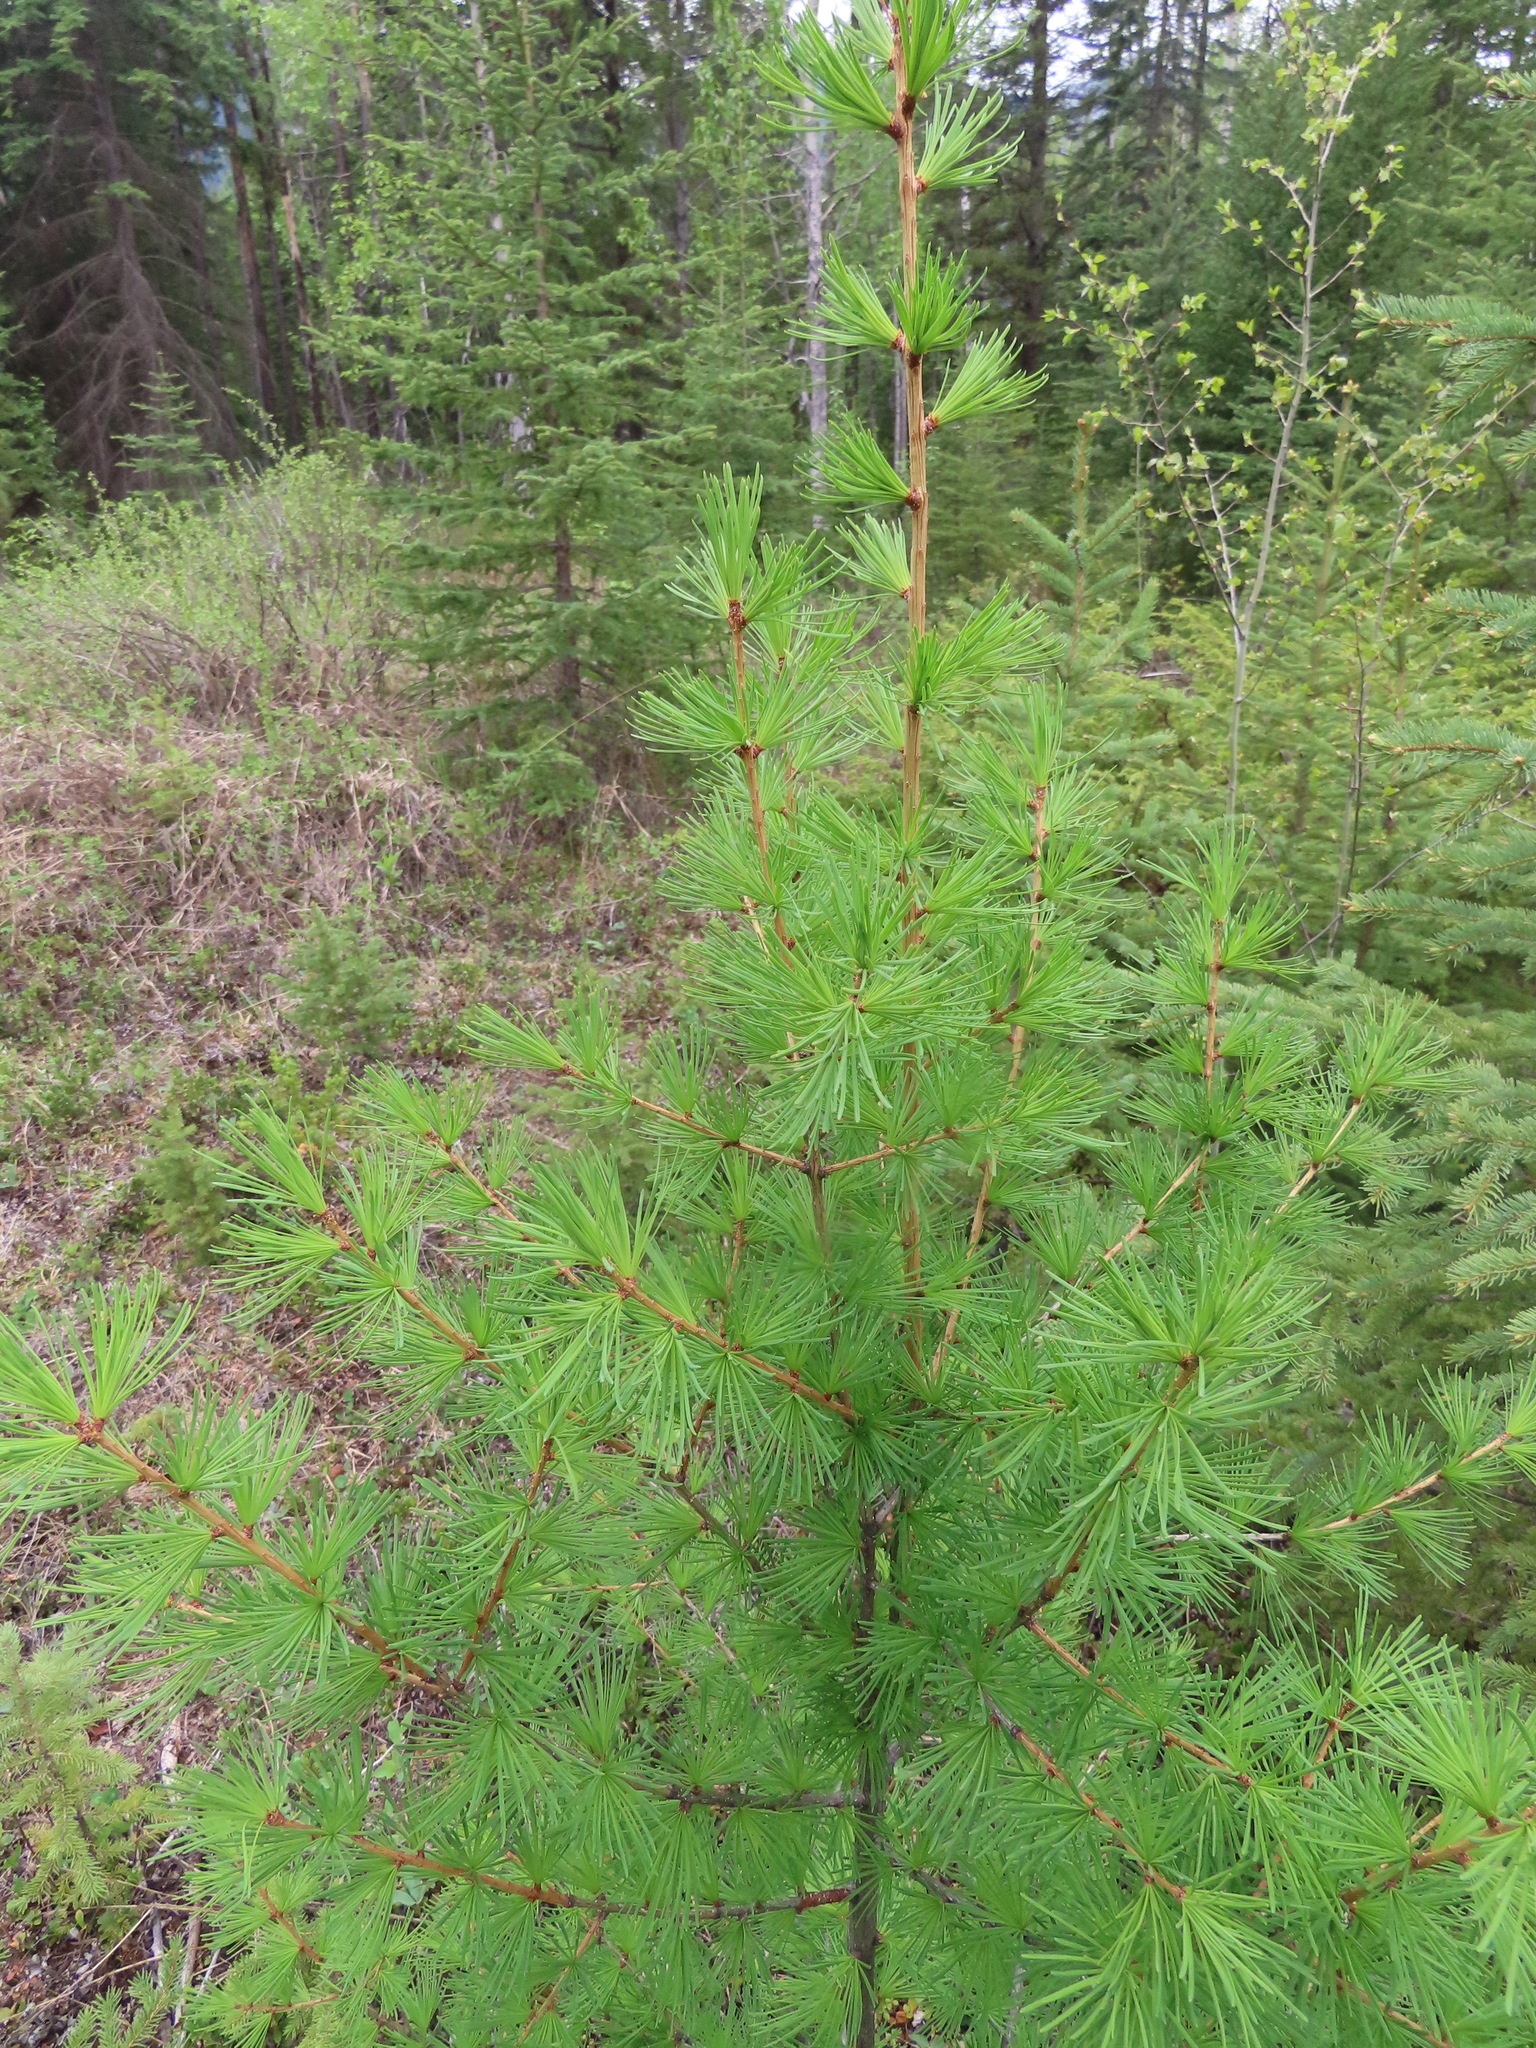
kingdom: Plantae
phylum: Tracheophyta
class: Pinopsida
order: Pinales
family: Pinaceae
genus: Larix
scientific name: Larix occidentalis
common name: Western larch
